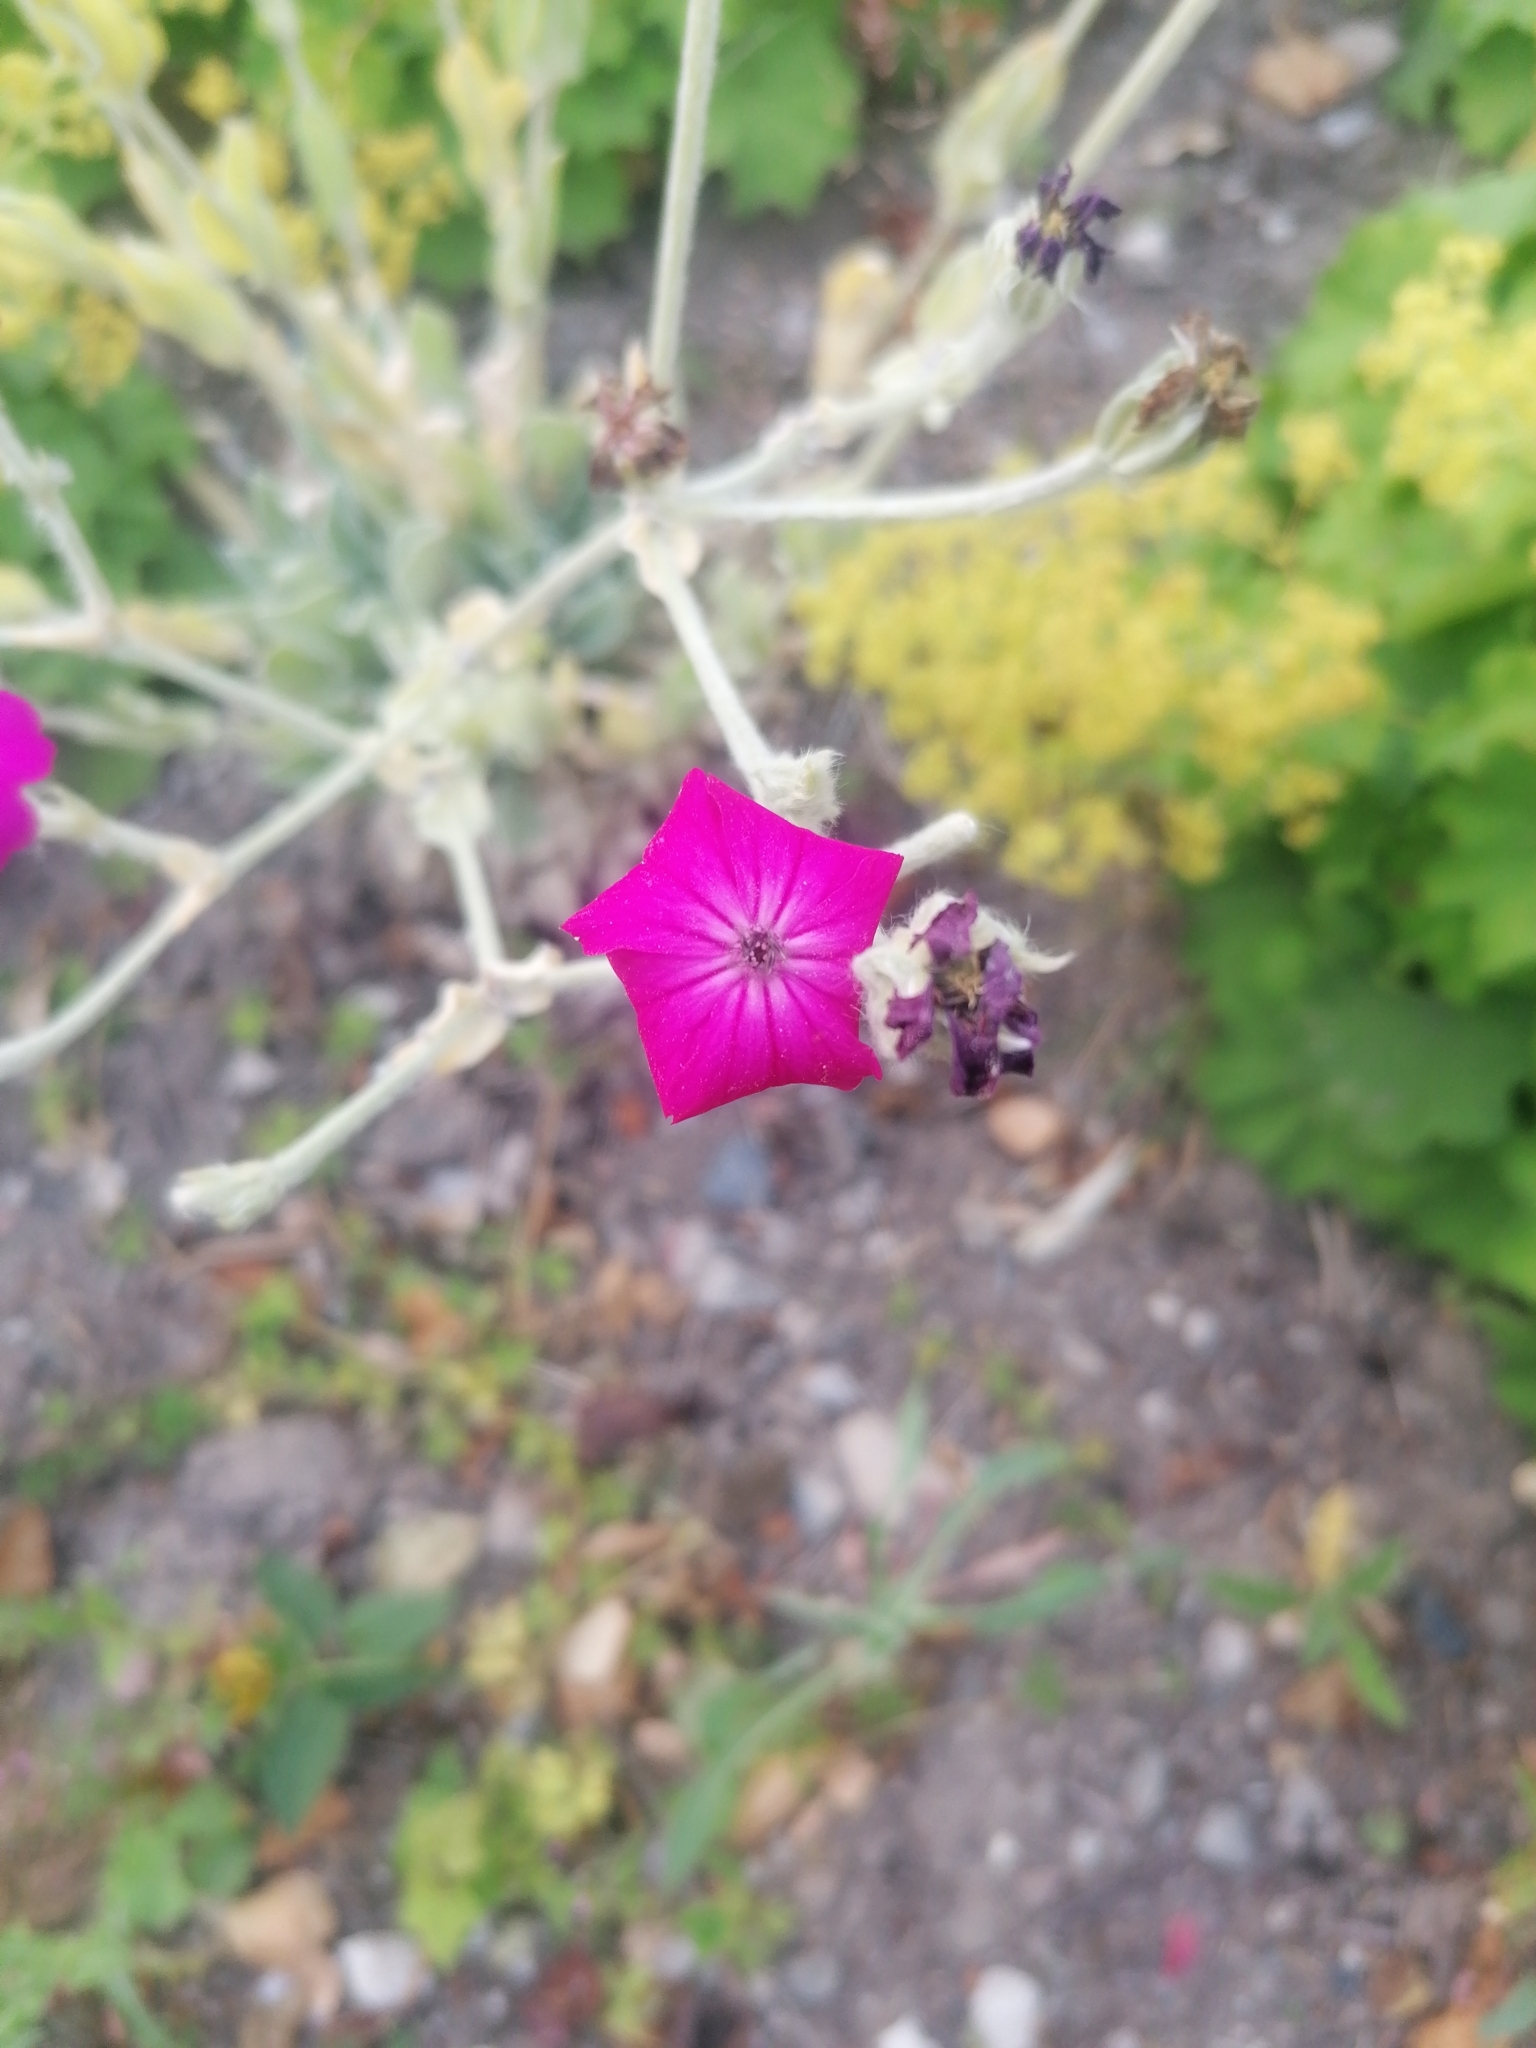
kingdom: Plantae
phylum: Tracheophyta
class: Magnoliopsida
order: Caryophyllales
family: Caryophyllaceae
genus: Silene
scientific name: Silene coronaria
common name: Rose campion
